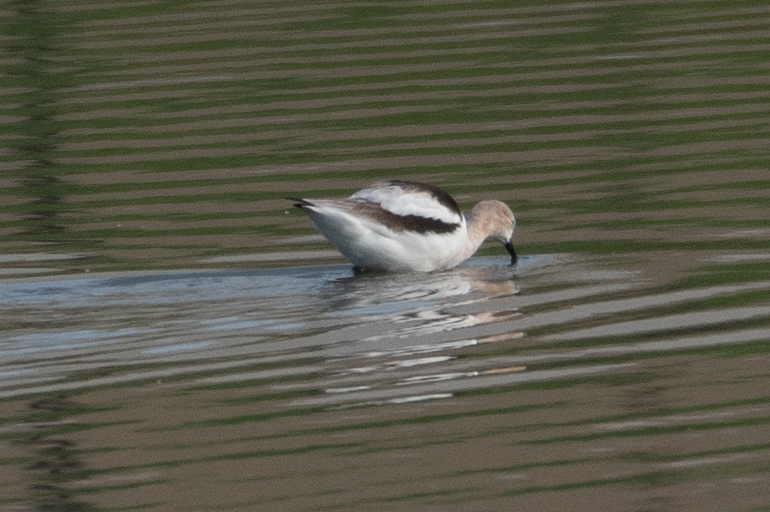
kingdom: Animalia
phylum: Chordata
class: Aves
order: Charadriiformes
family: Recurvirostridae
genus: Recurvirostra
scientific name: Recurvirostra americana
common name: American avocet
